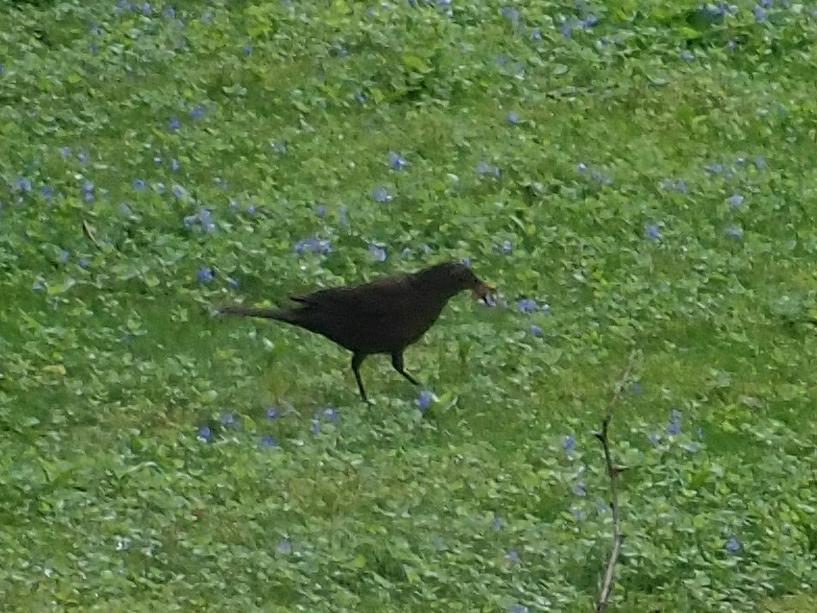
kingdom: Animalia
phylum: Chordata
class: Aves
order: Passeriformes
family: Turdidae
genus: Turdus
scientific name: Turdus merula
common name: Common blackbird
